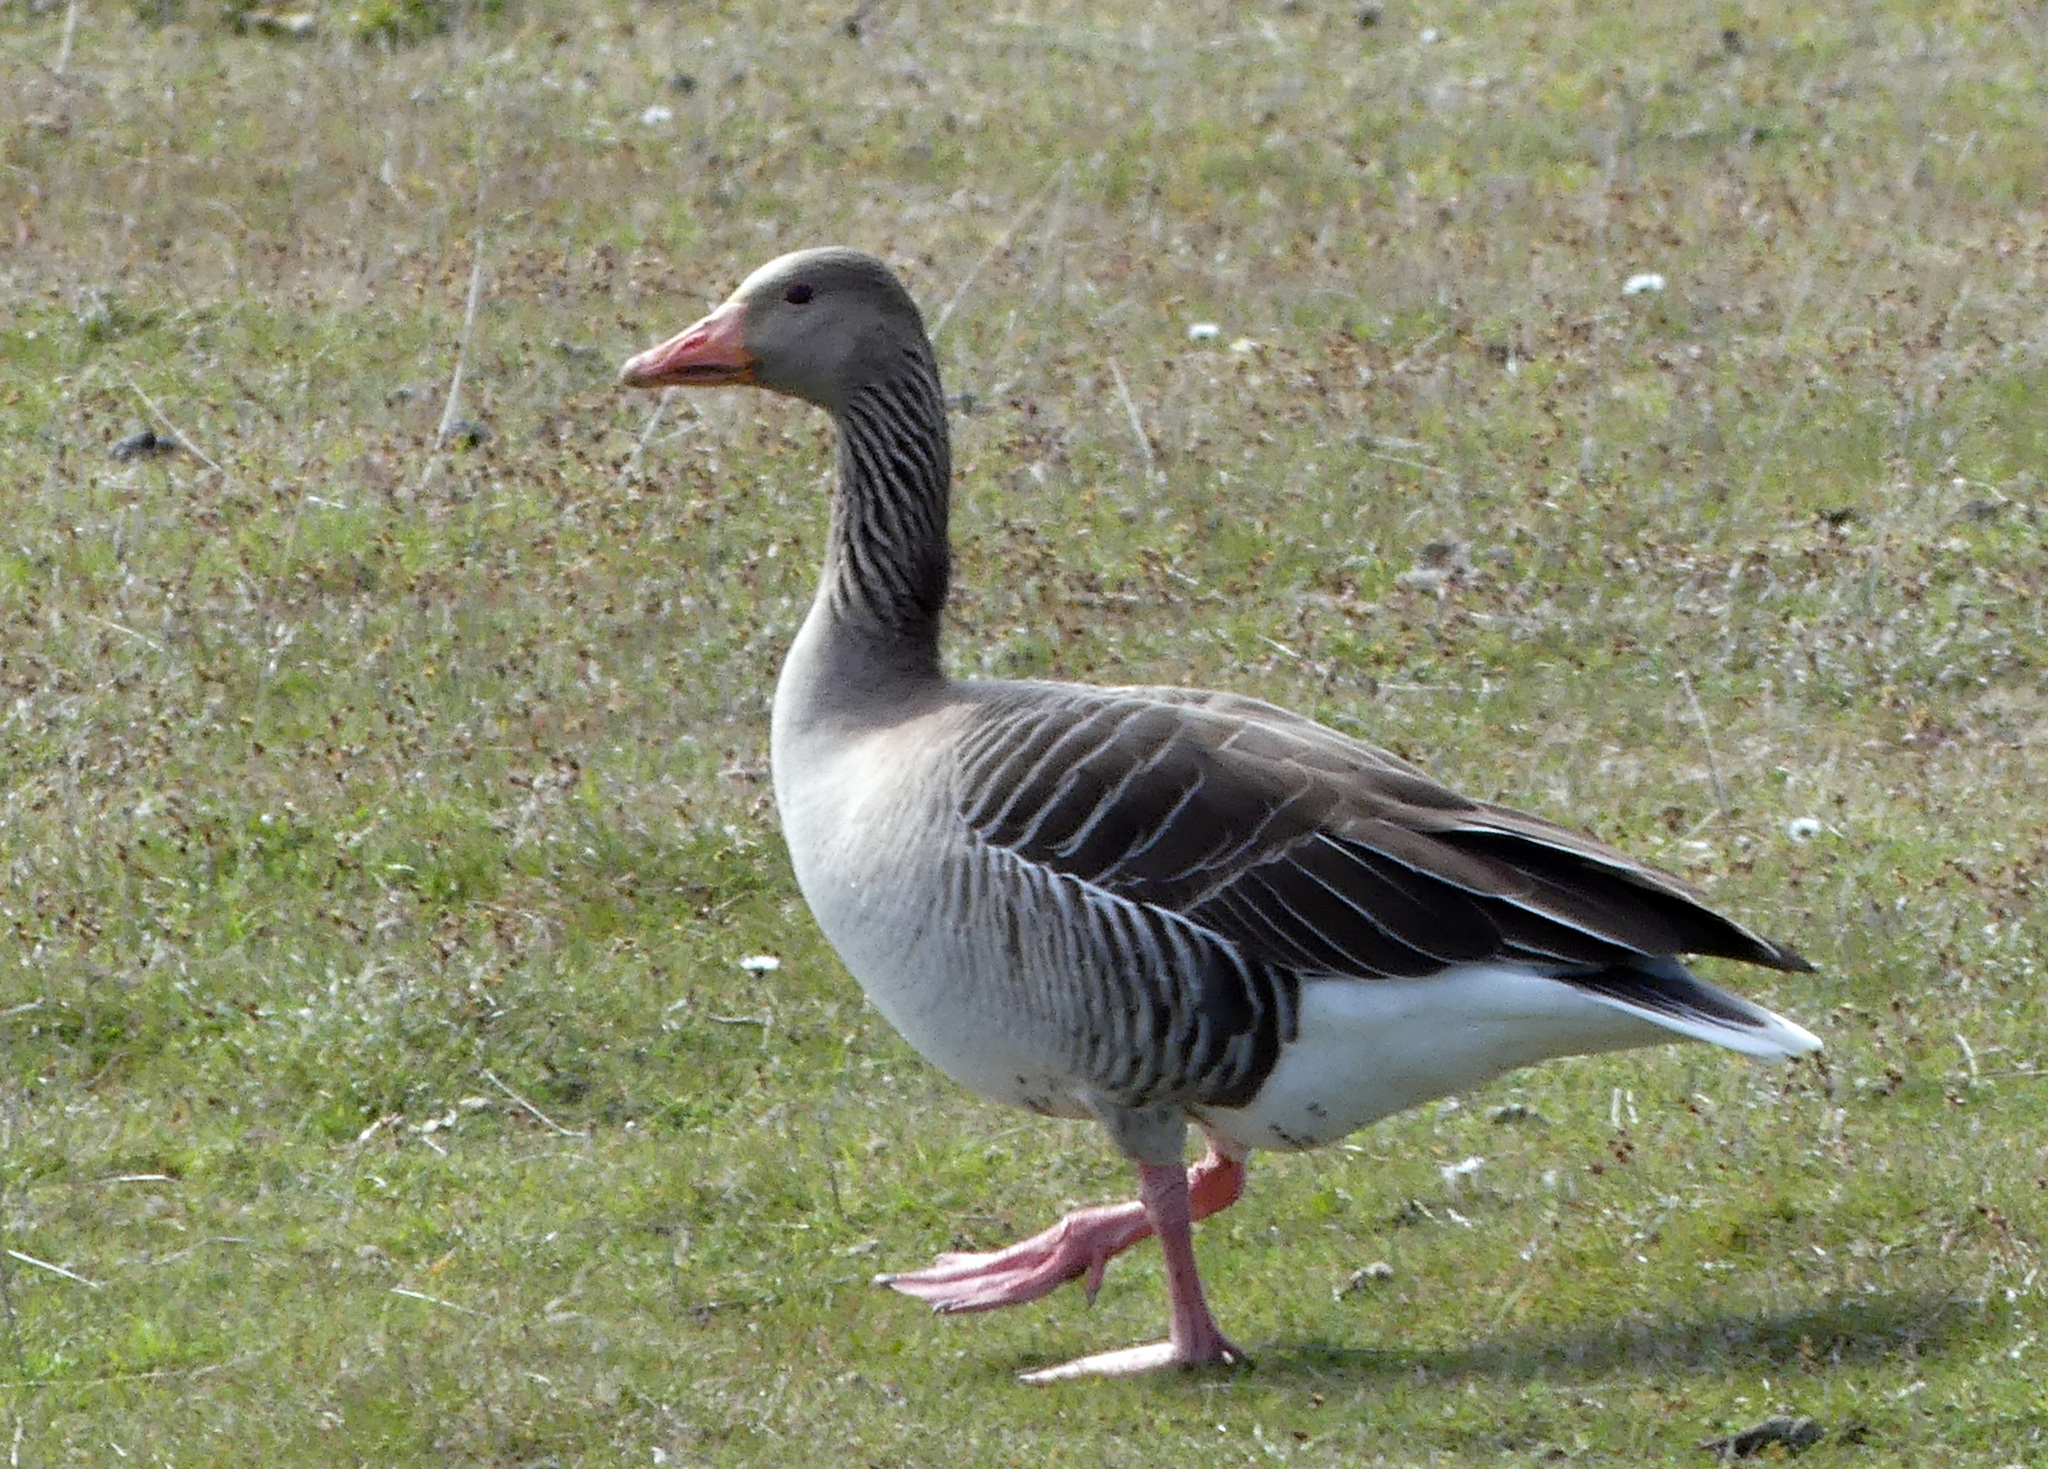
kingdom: Animalia
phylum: Chordata
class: Aves
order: Anseriformes
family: Anatidae
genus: Anser
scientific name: Anser anser
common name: Greylag goose
